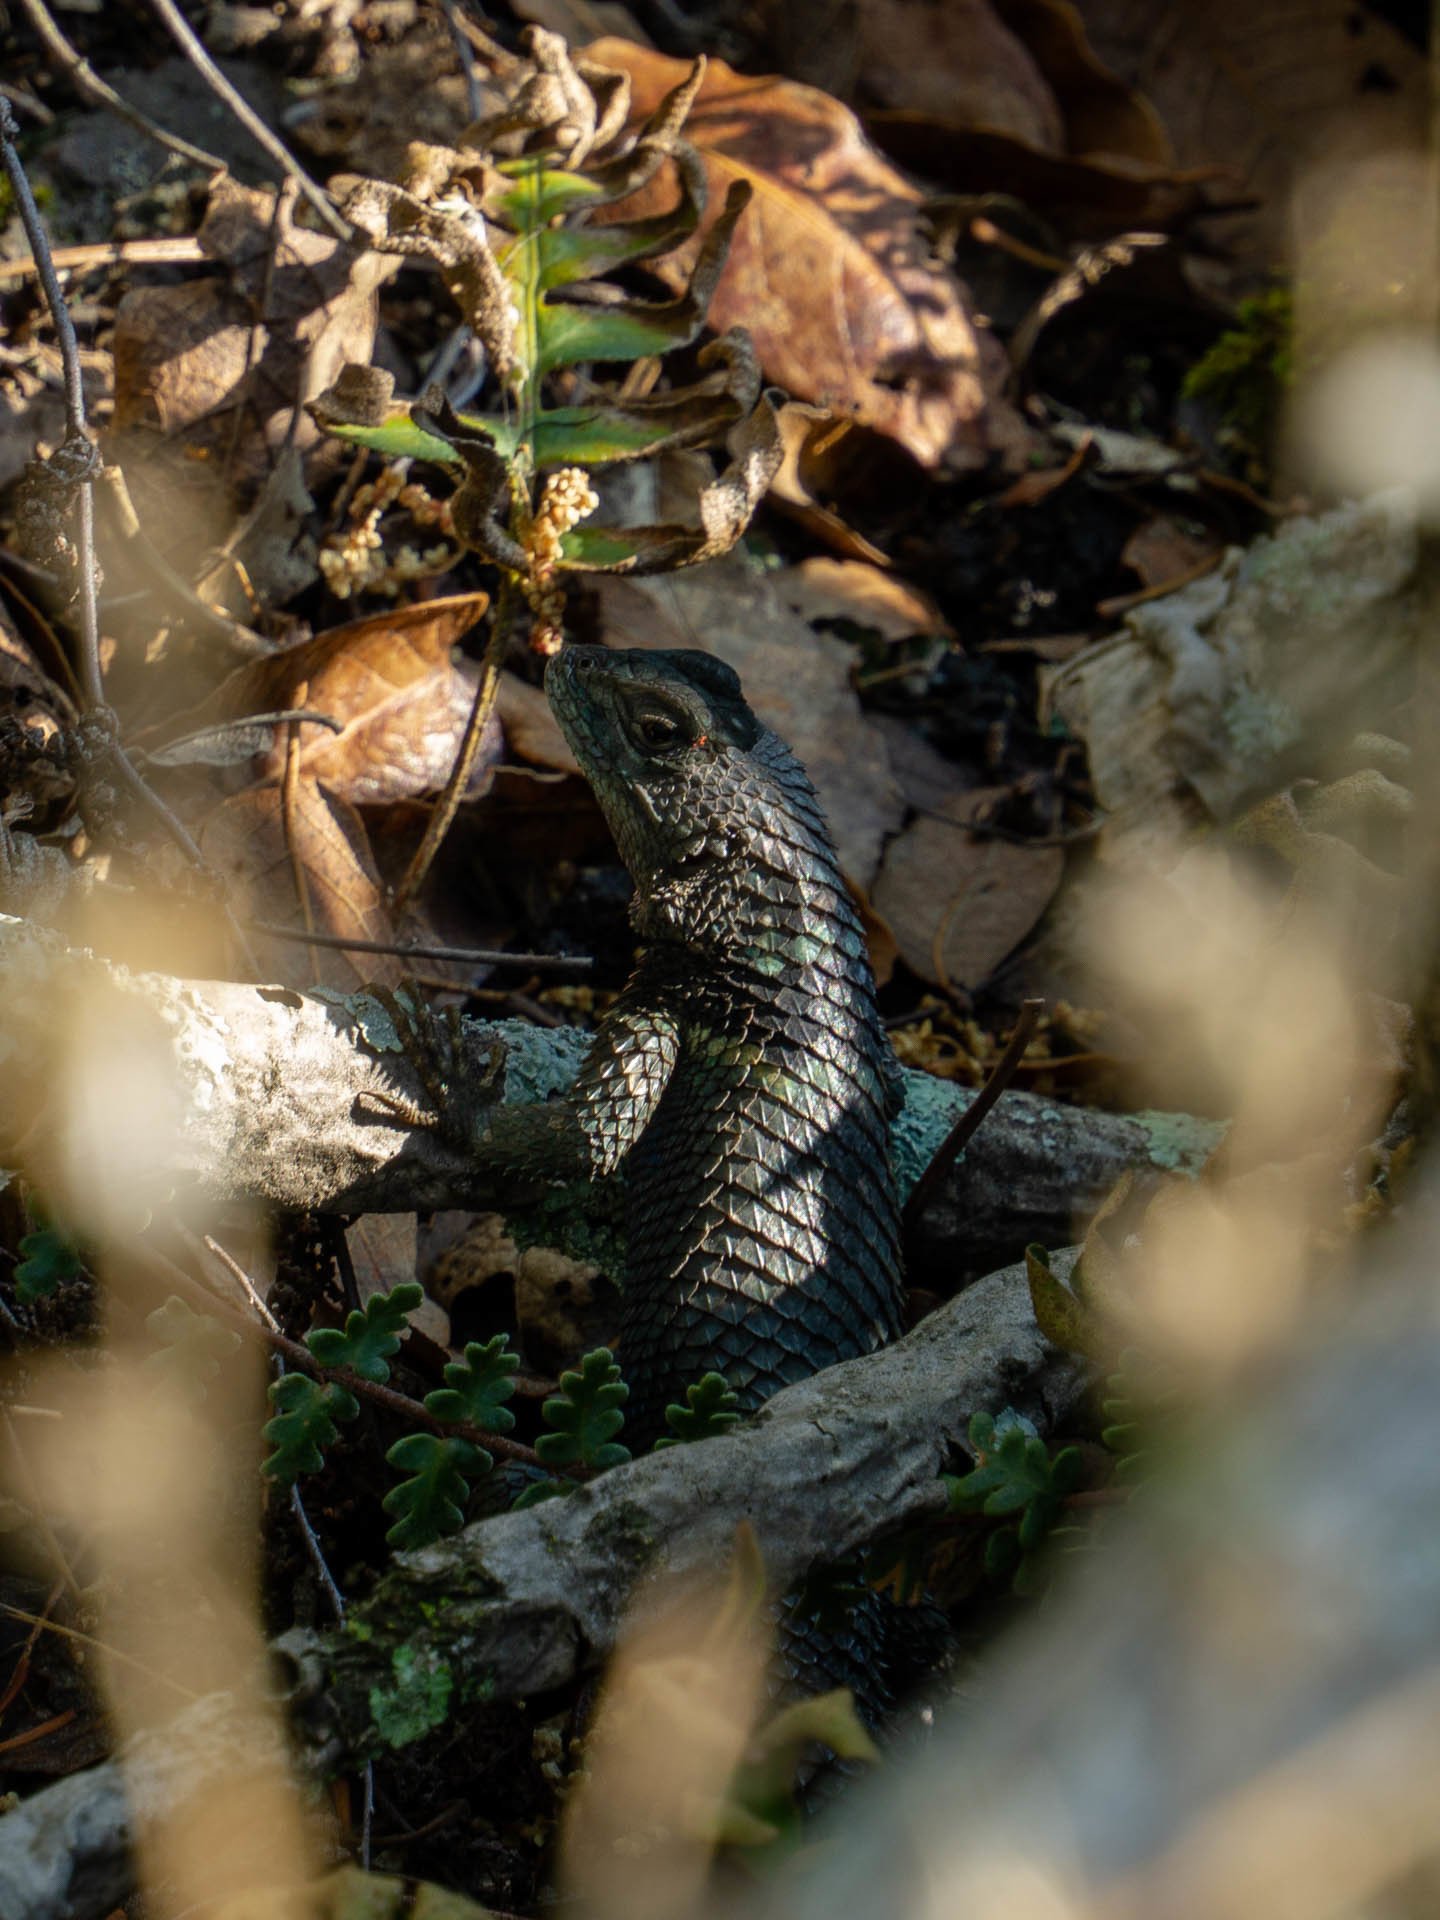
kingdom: Animalia
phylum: Chordata
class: Squamata
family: Phrynosomatidae
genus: Sceloporus
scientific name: Sceloporus torquatus
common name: Central plateau torquate lizard [melanogaster]
